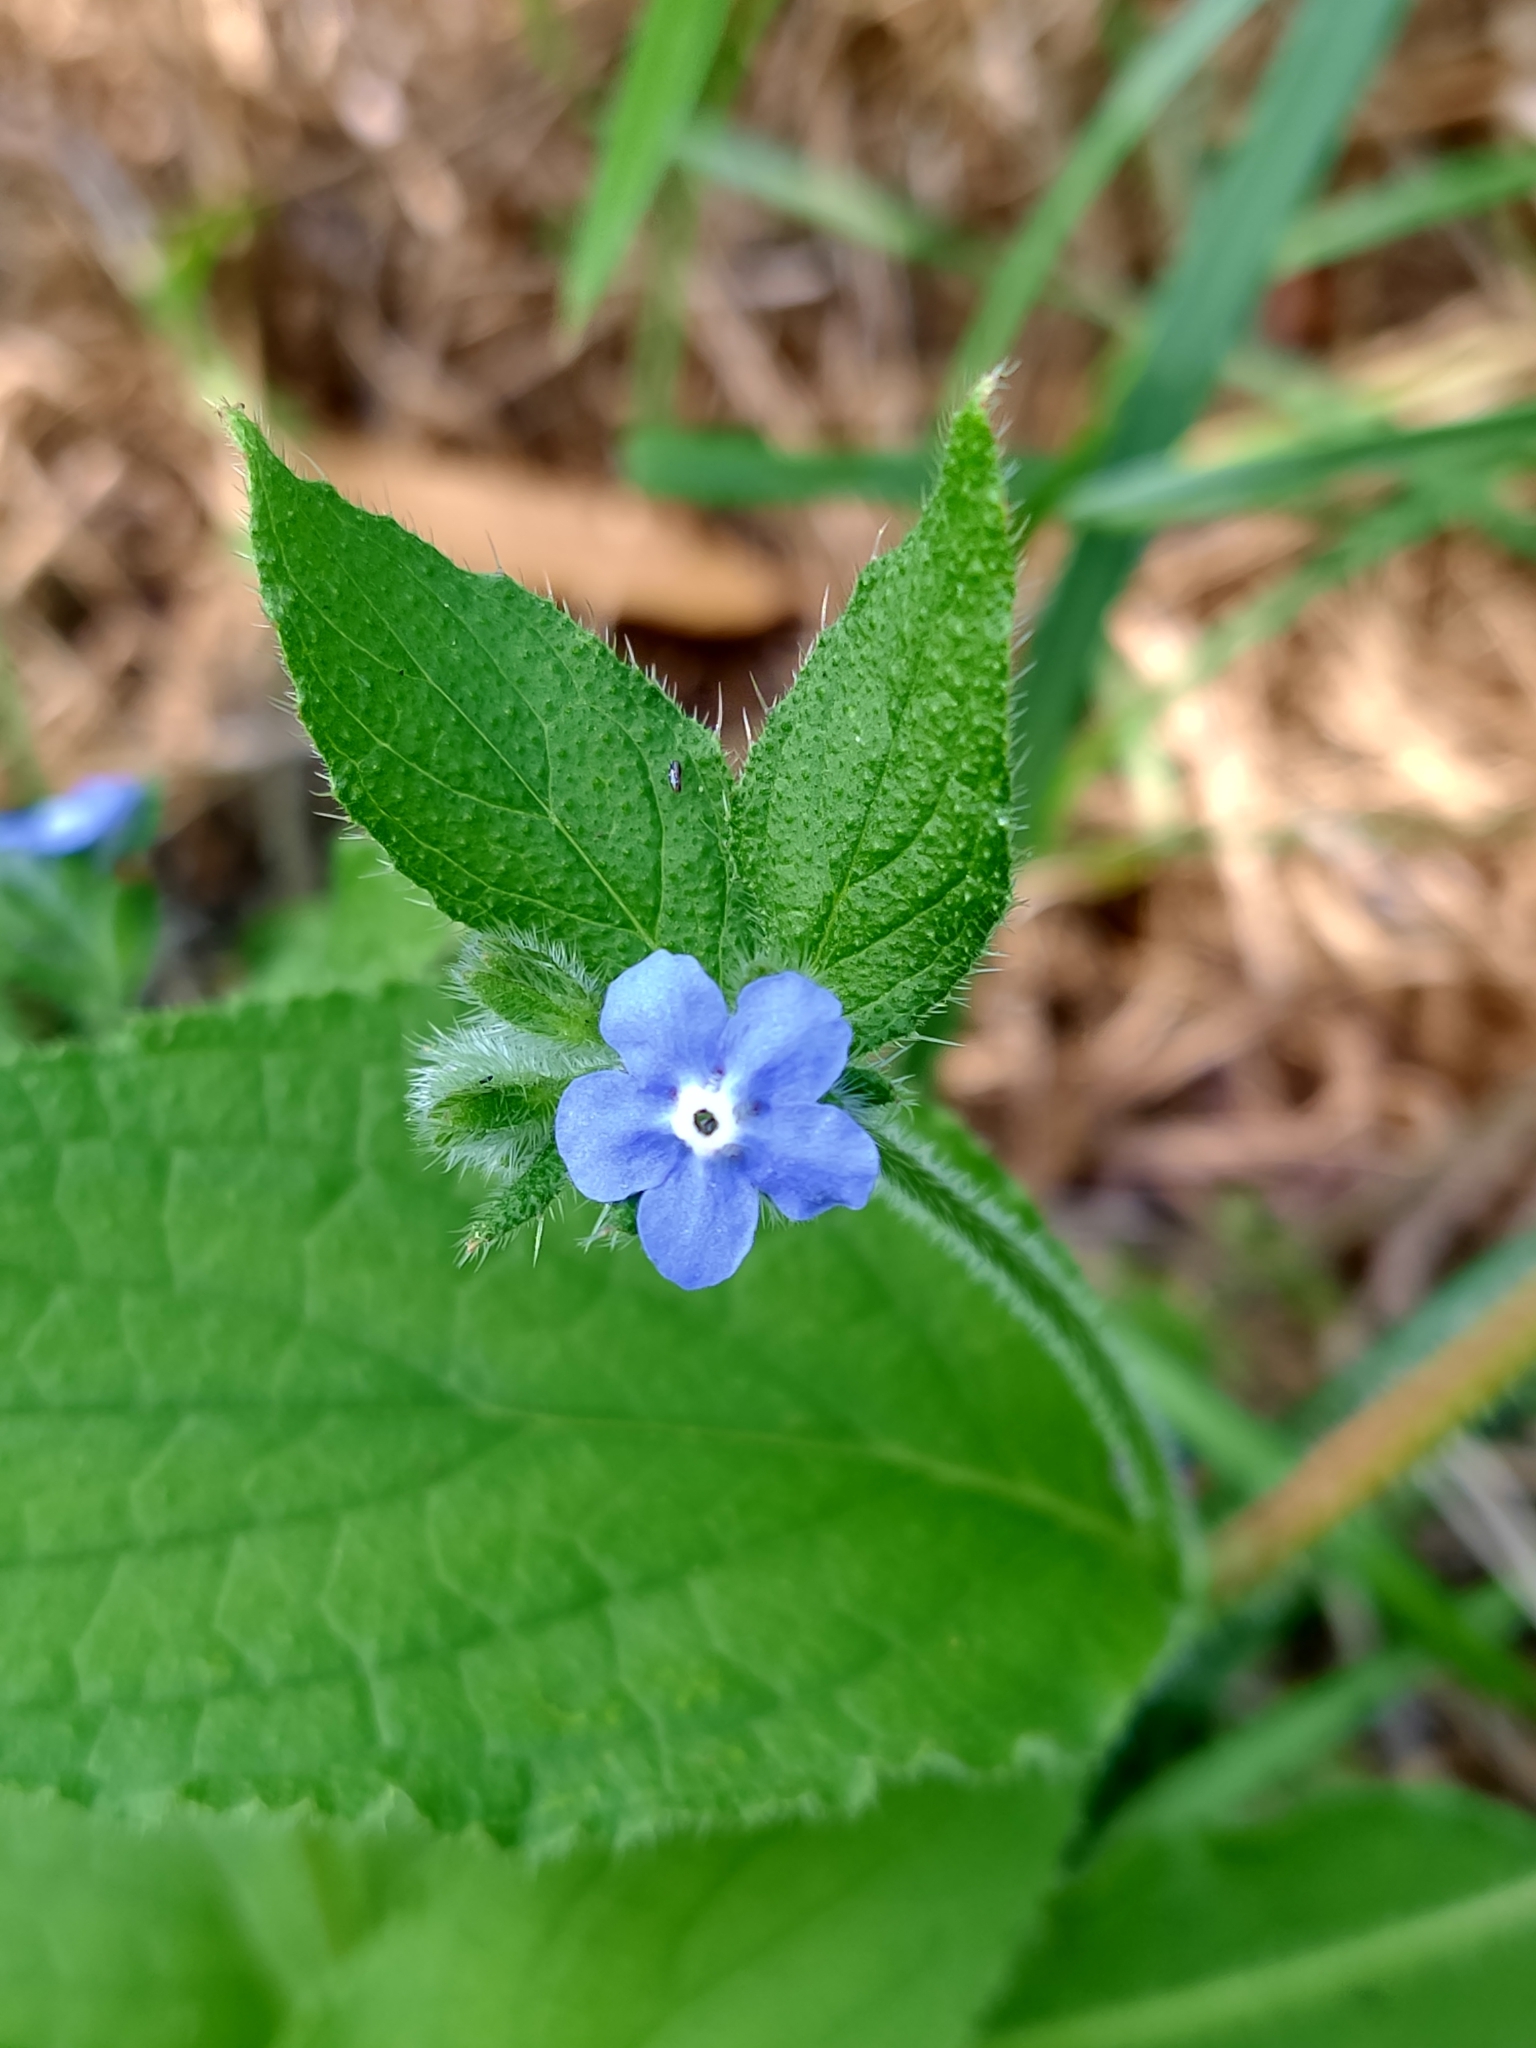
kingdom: Plantae
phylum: Tracheophyta
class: Magnoliopsida
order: Boraginales
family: Boraginaceae
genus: Pentaglottis
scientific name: Pentaglottis sempervirens
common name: Green alkanet
